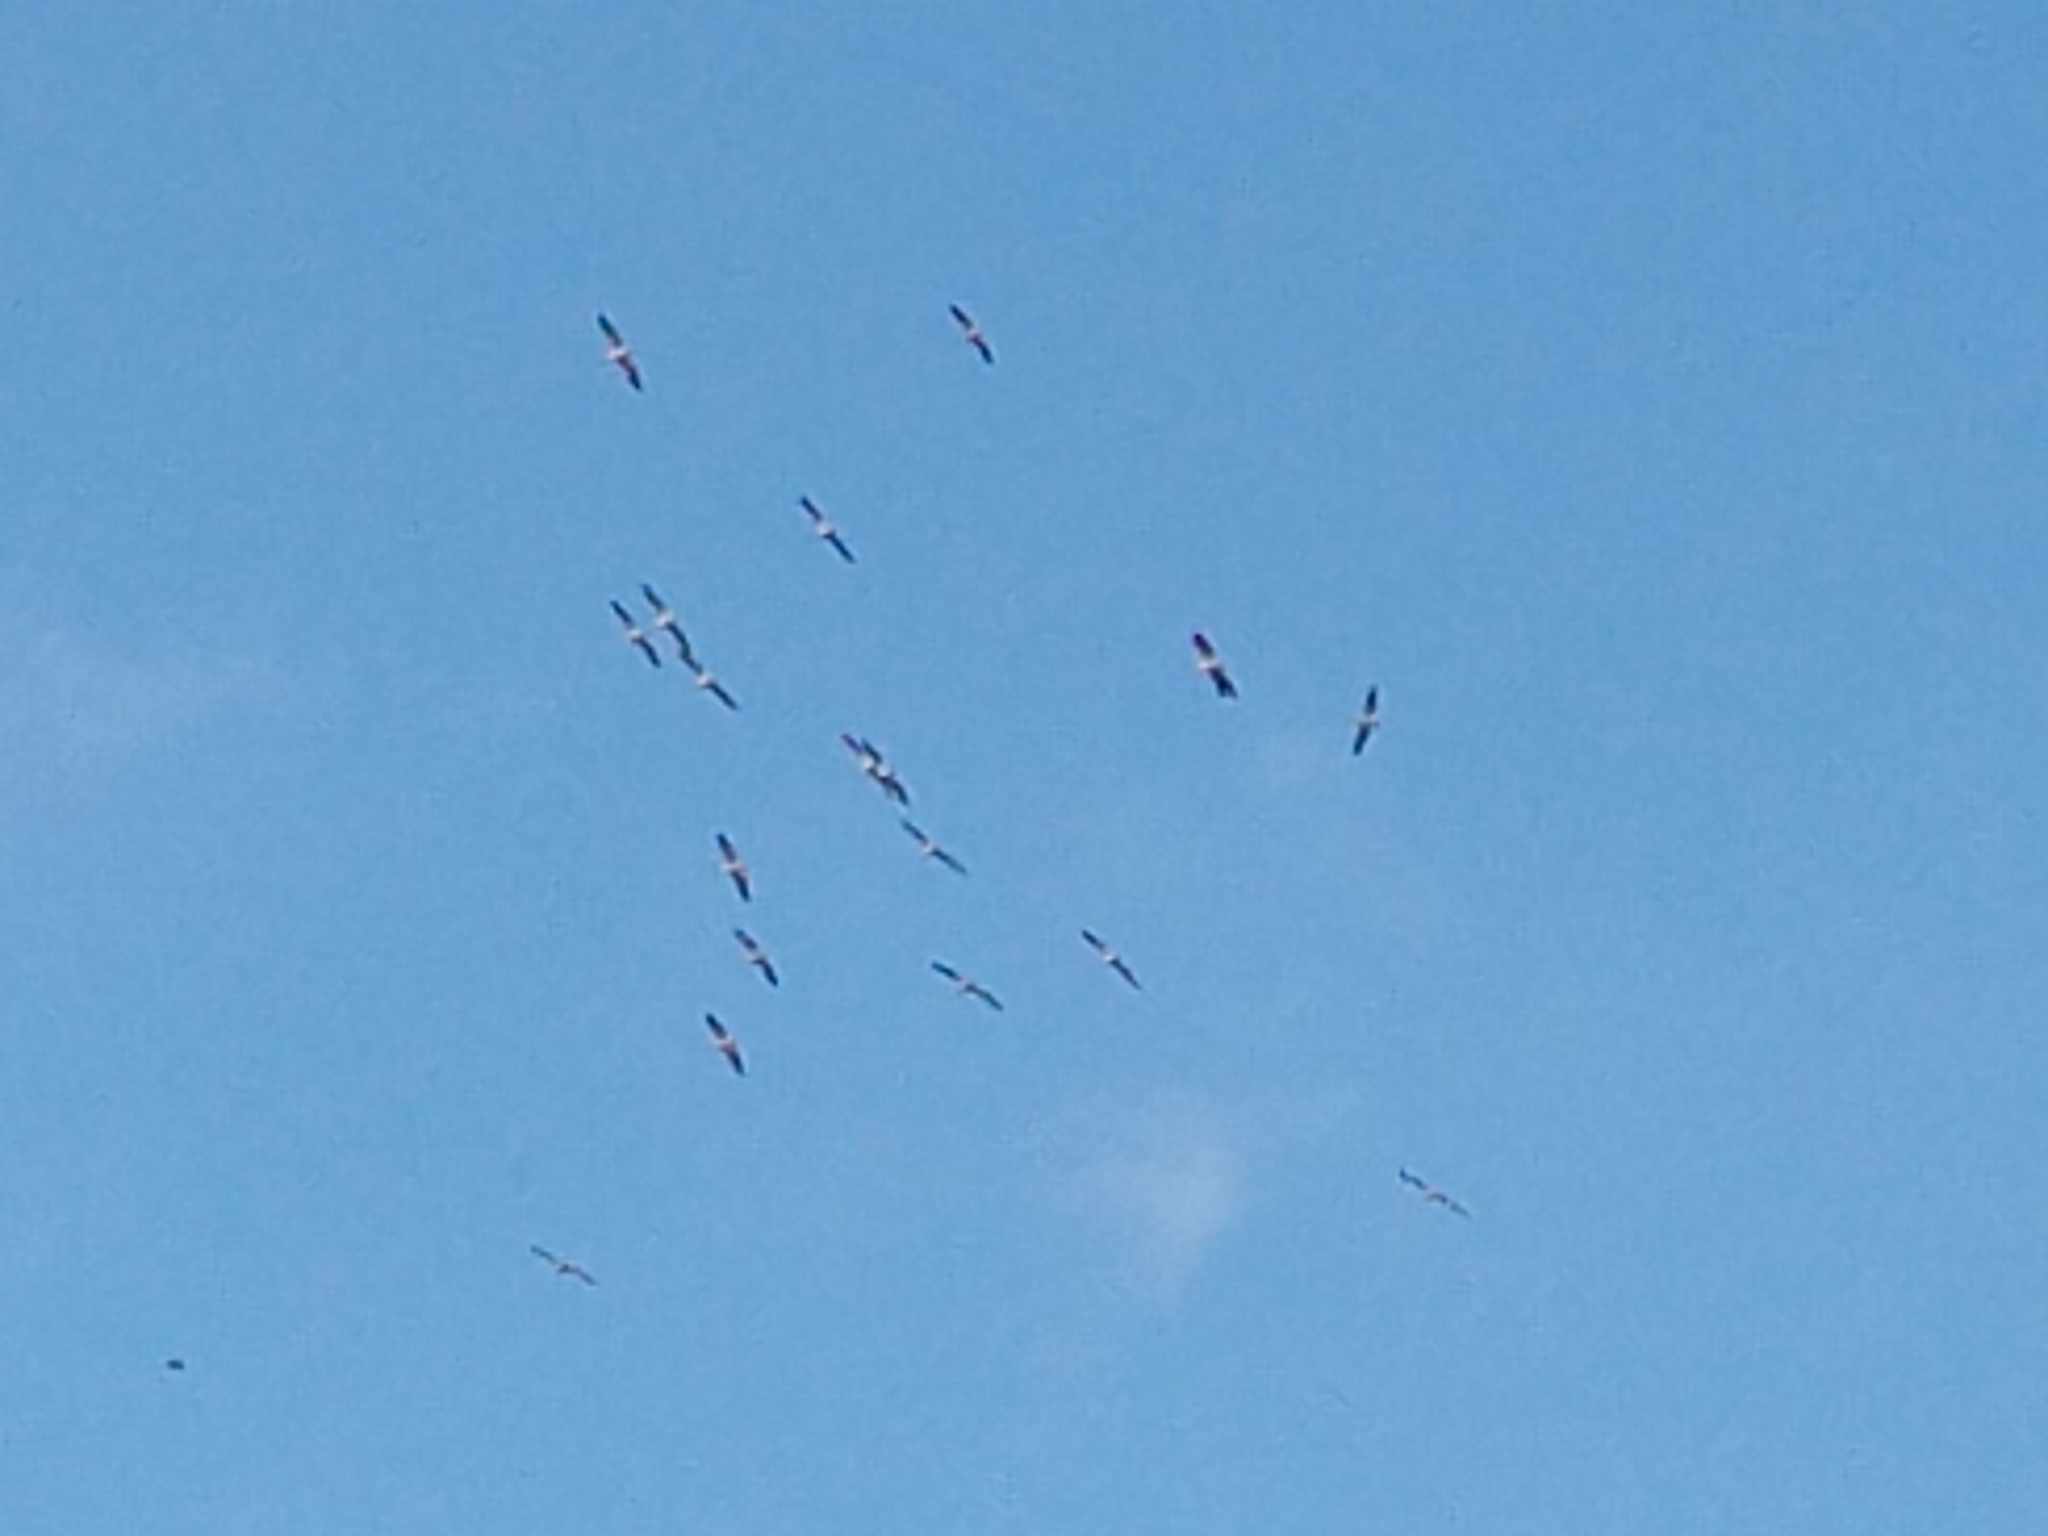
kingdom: Animalia
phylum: Chordata
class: Aves
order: Pelecaniformes
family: Pelecanidae
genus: Pelecanus
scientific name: Pelecanus erythrorhynchos
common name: American white pelican
